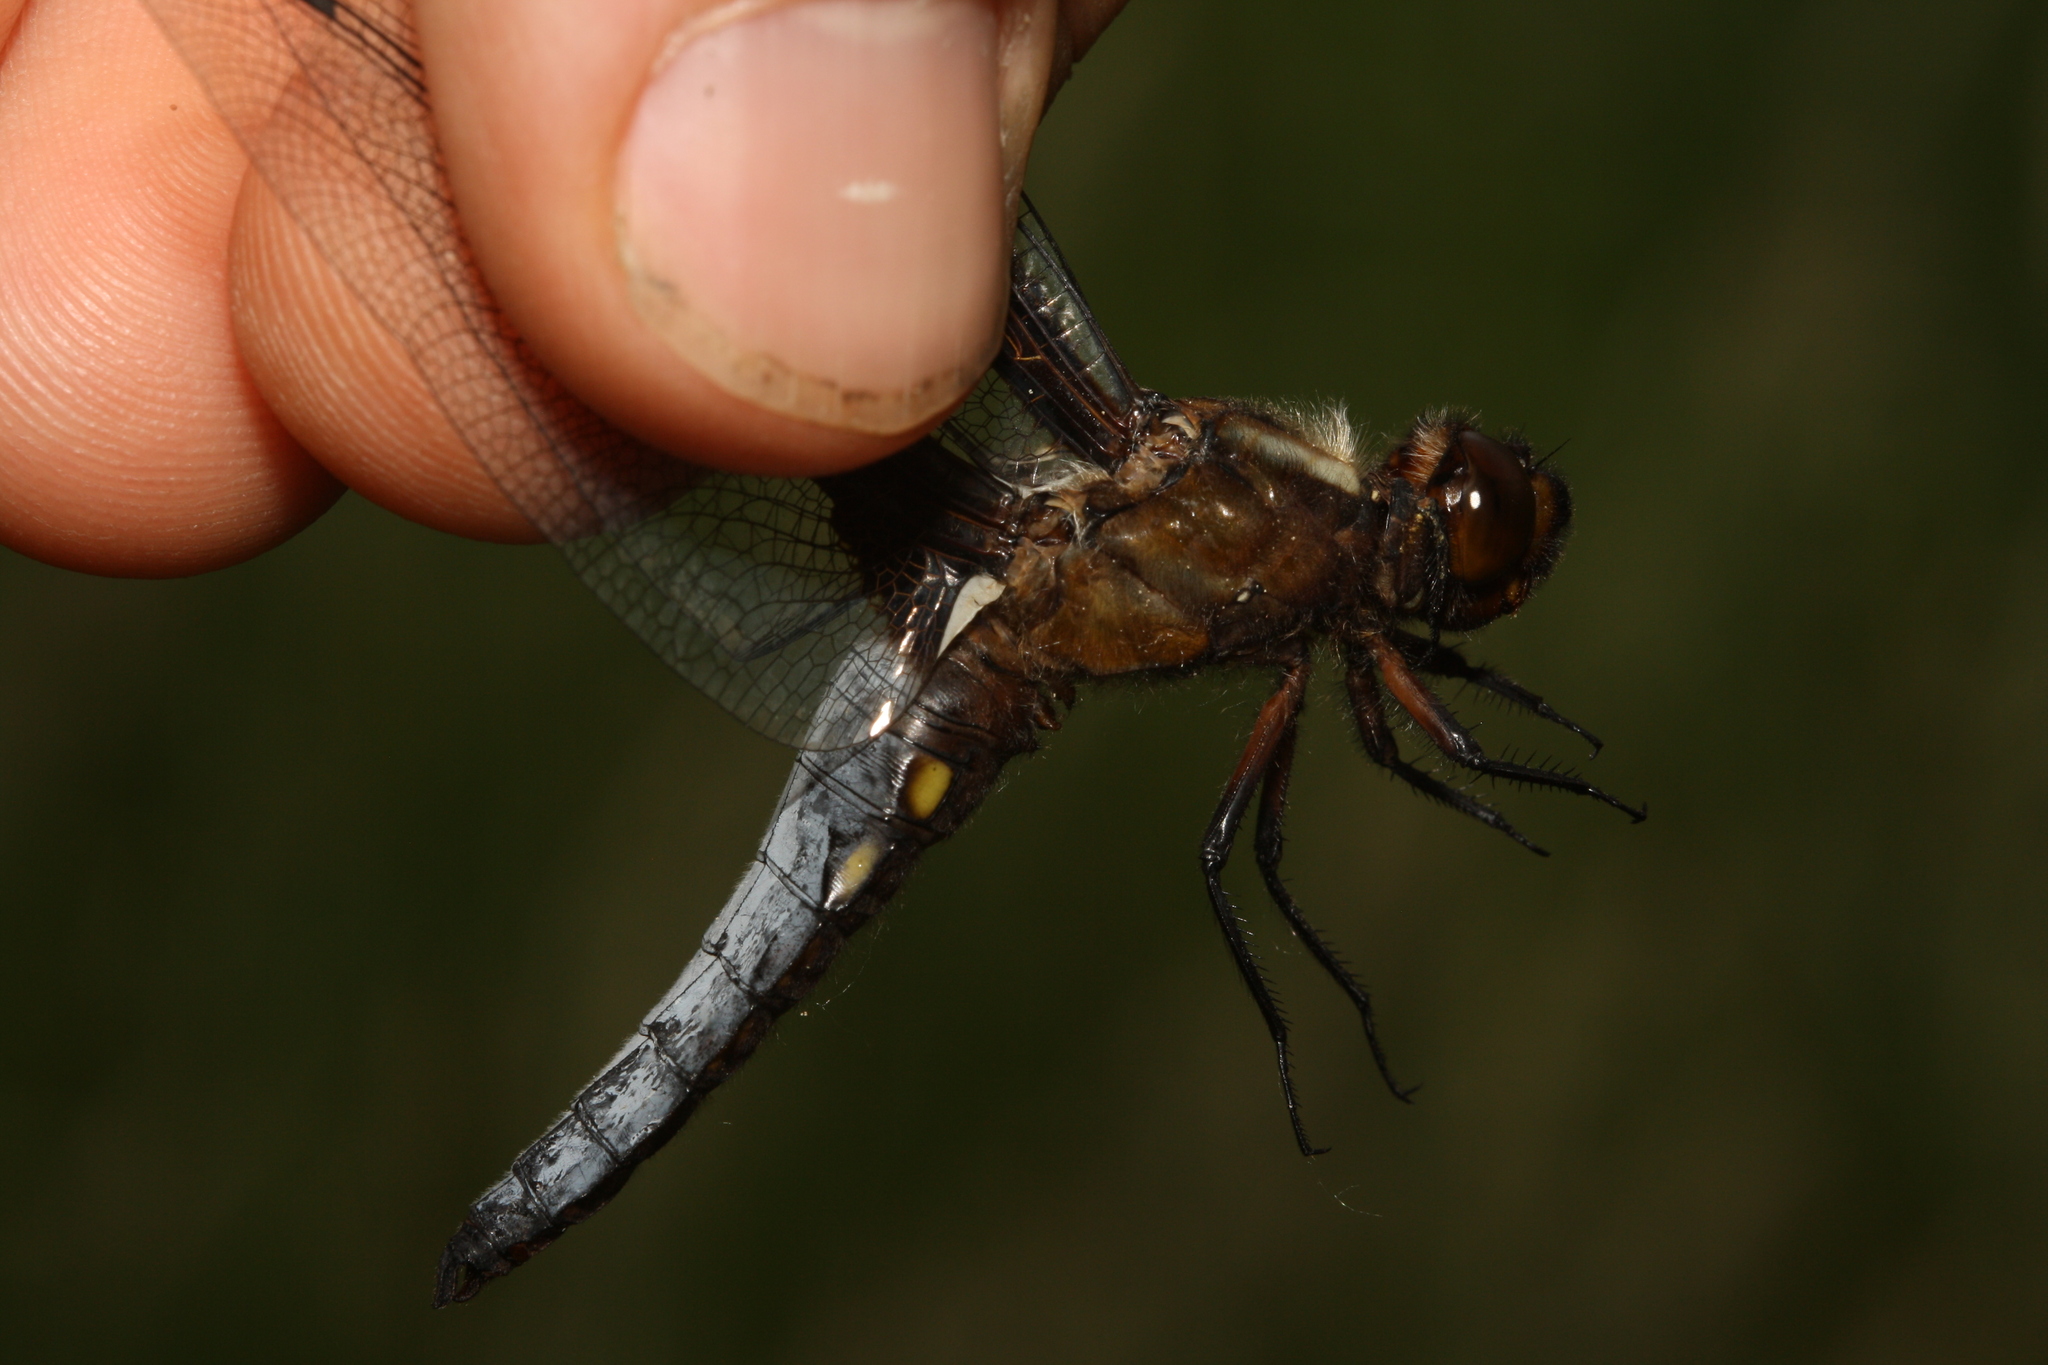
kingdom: Animalia
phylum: Arthropoda
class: Insecta
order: Odonata
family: Libellulidae
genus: Libellula
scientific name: Libellula depressa
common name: Broad-bodied chaser
